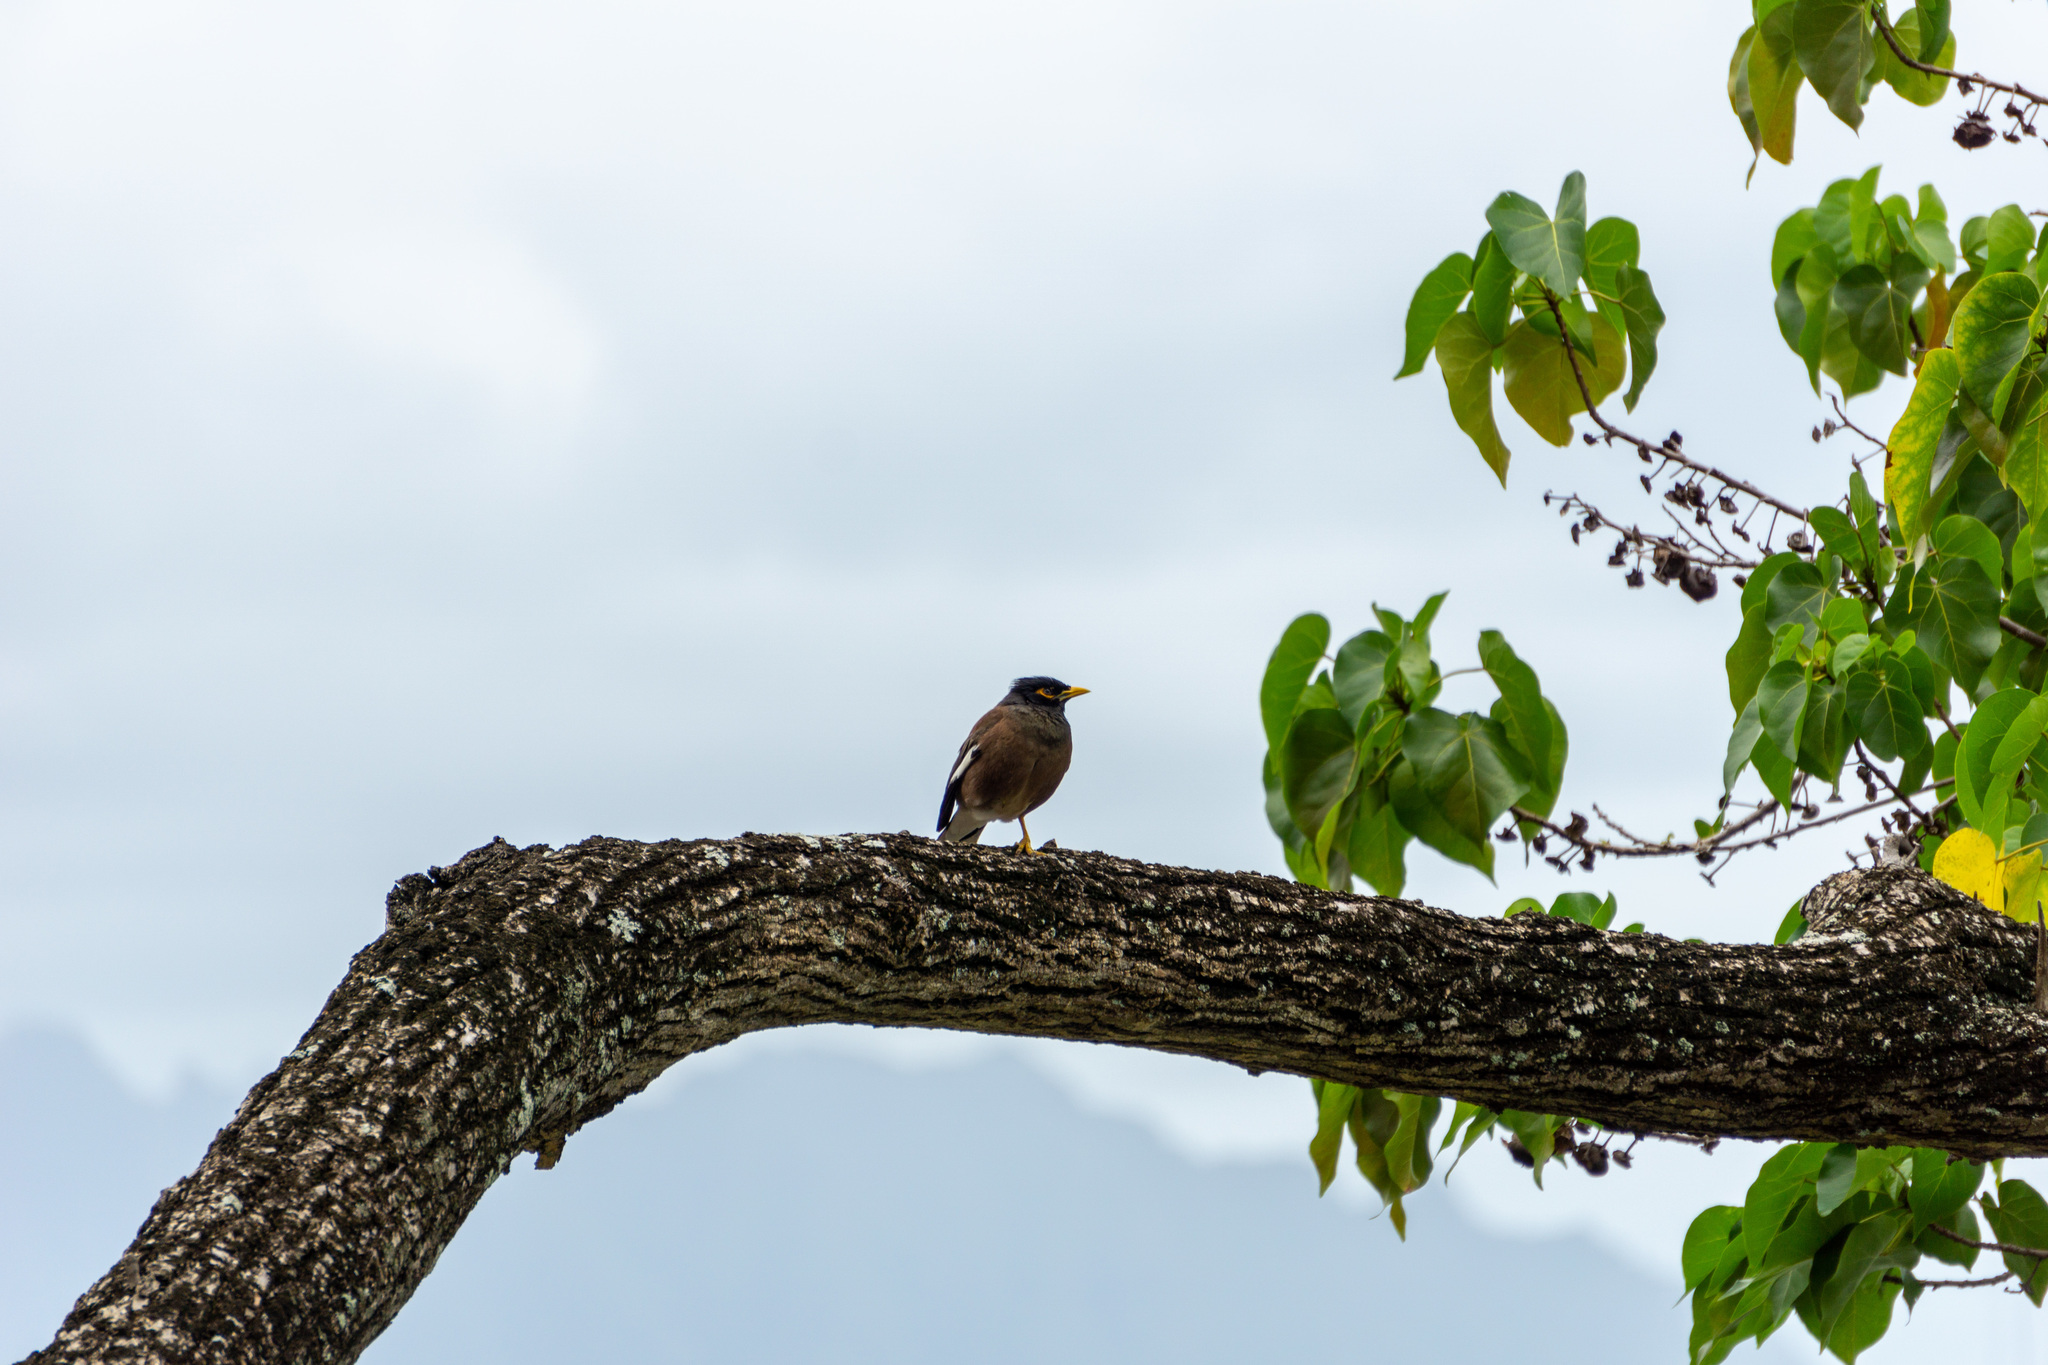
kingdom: Animalia
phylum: Chordata
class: Aves
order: Passeriformes
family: Sturnidae
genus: Acridotheres
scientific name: Acridotheres tristis
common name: Common myna
